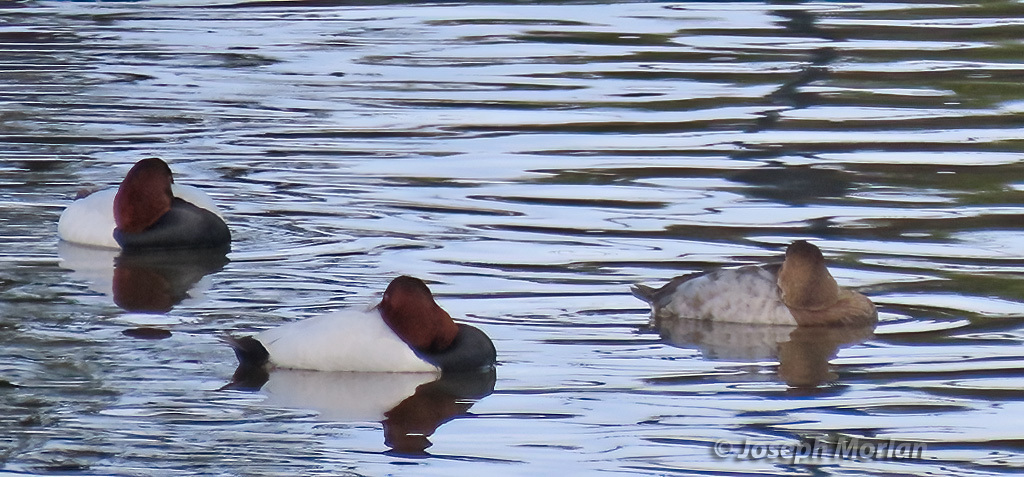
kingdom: Animalia
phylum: Chordata
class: Aves
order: Anseriformes
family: Anatidae
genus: Aythya
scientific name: Aythya valisineria
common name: Canvasback
